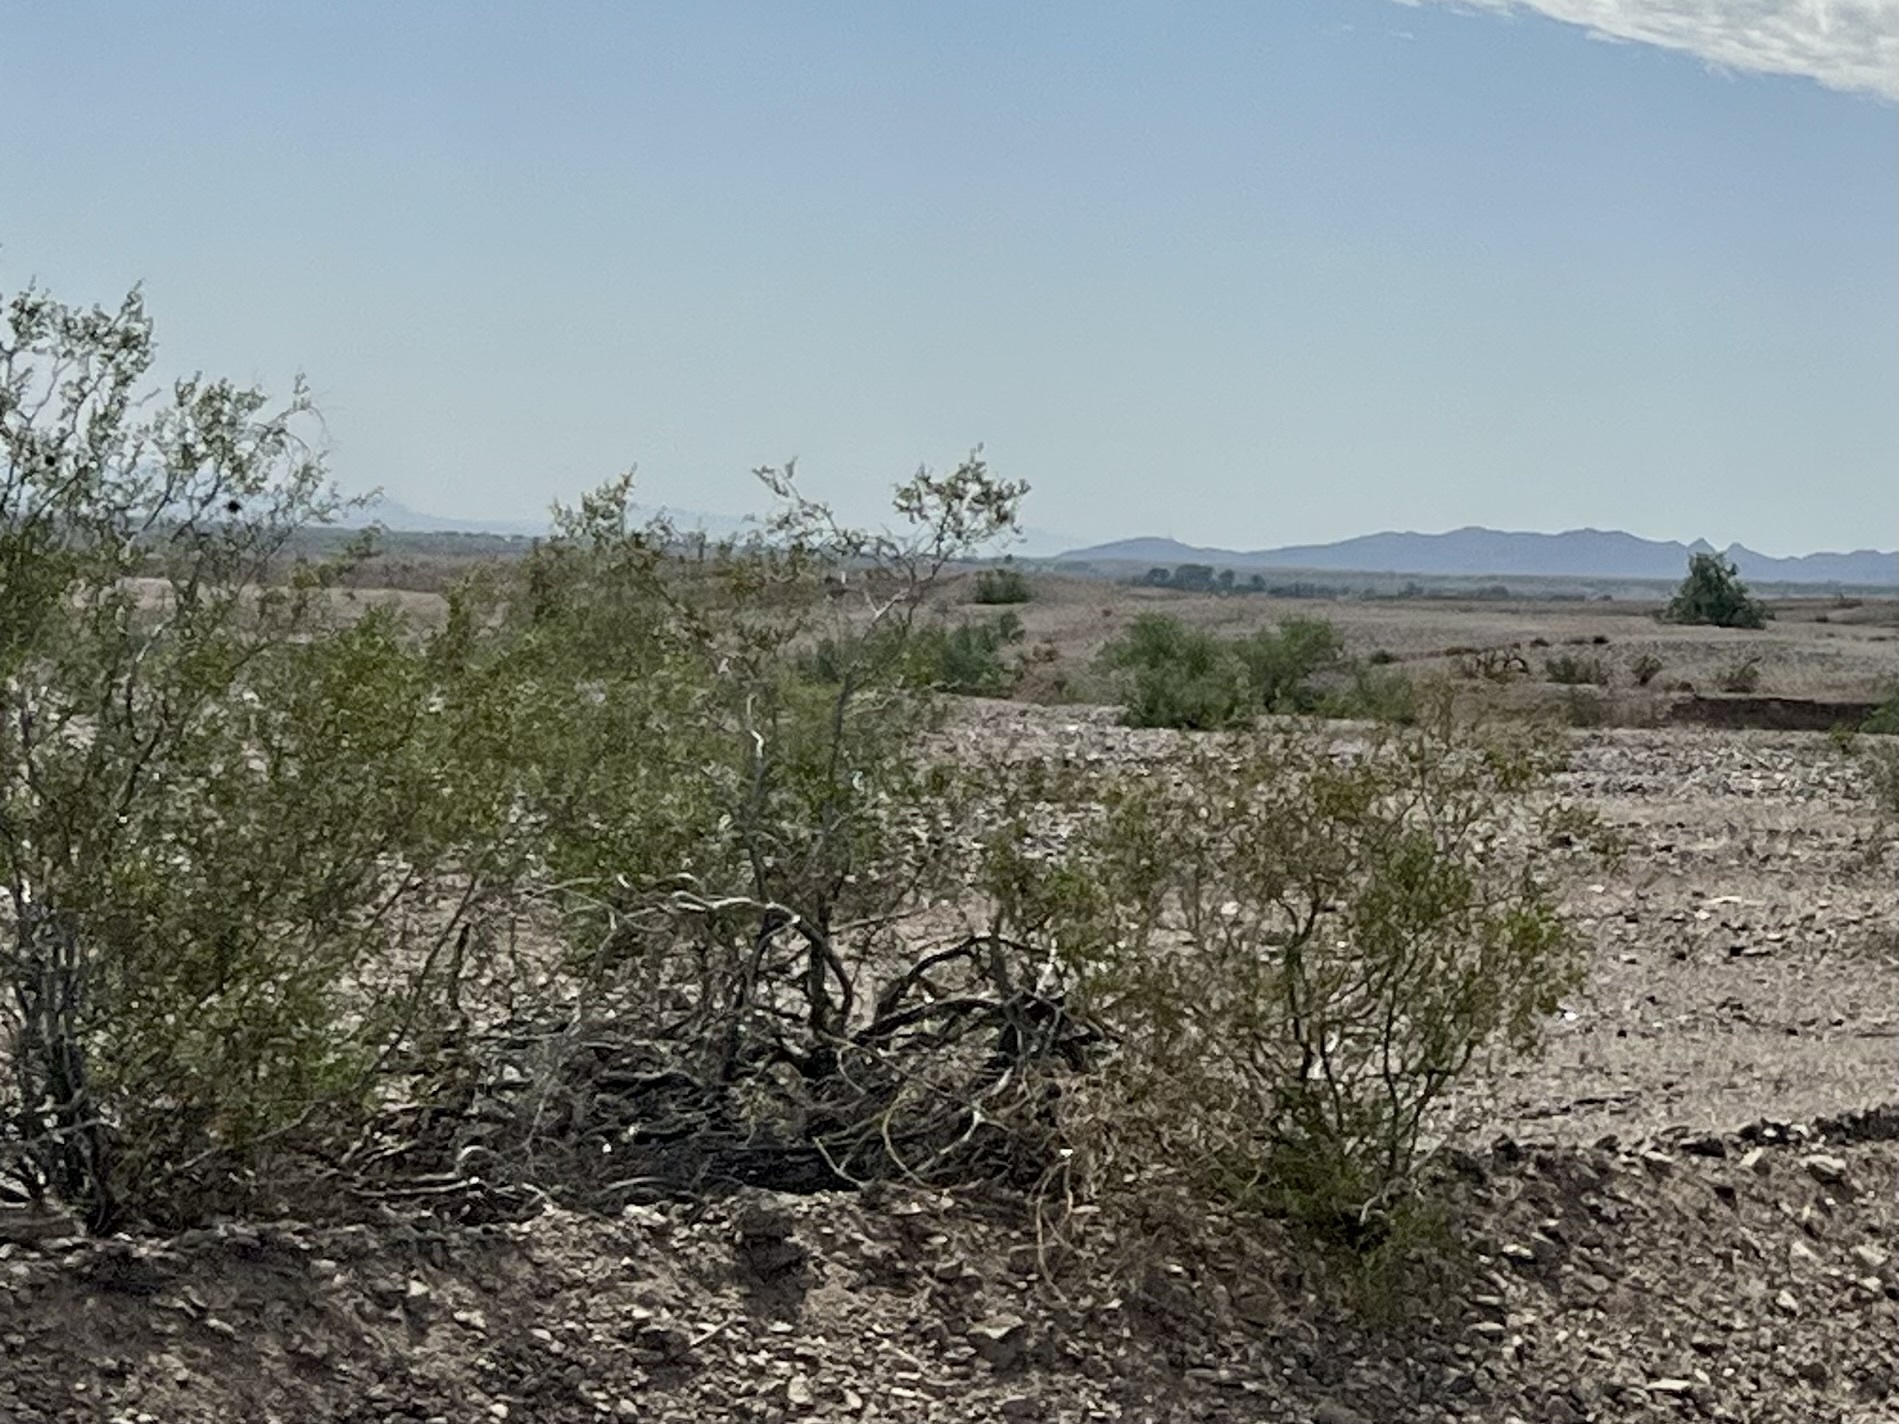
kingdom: Plantae
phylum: Tracheophyta
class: Magnoliopsida
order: Zygophyllales
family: Zygophyllaceae
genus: Larrea
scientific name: Larrea tridentata
